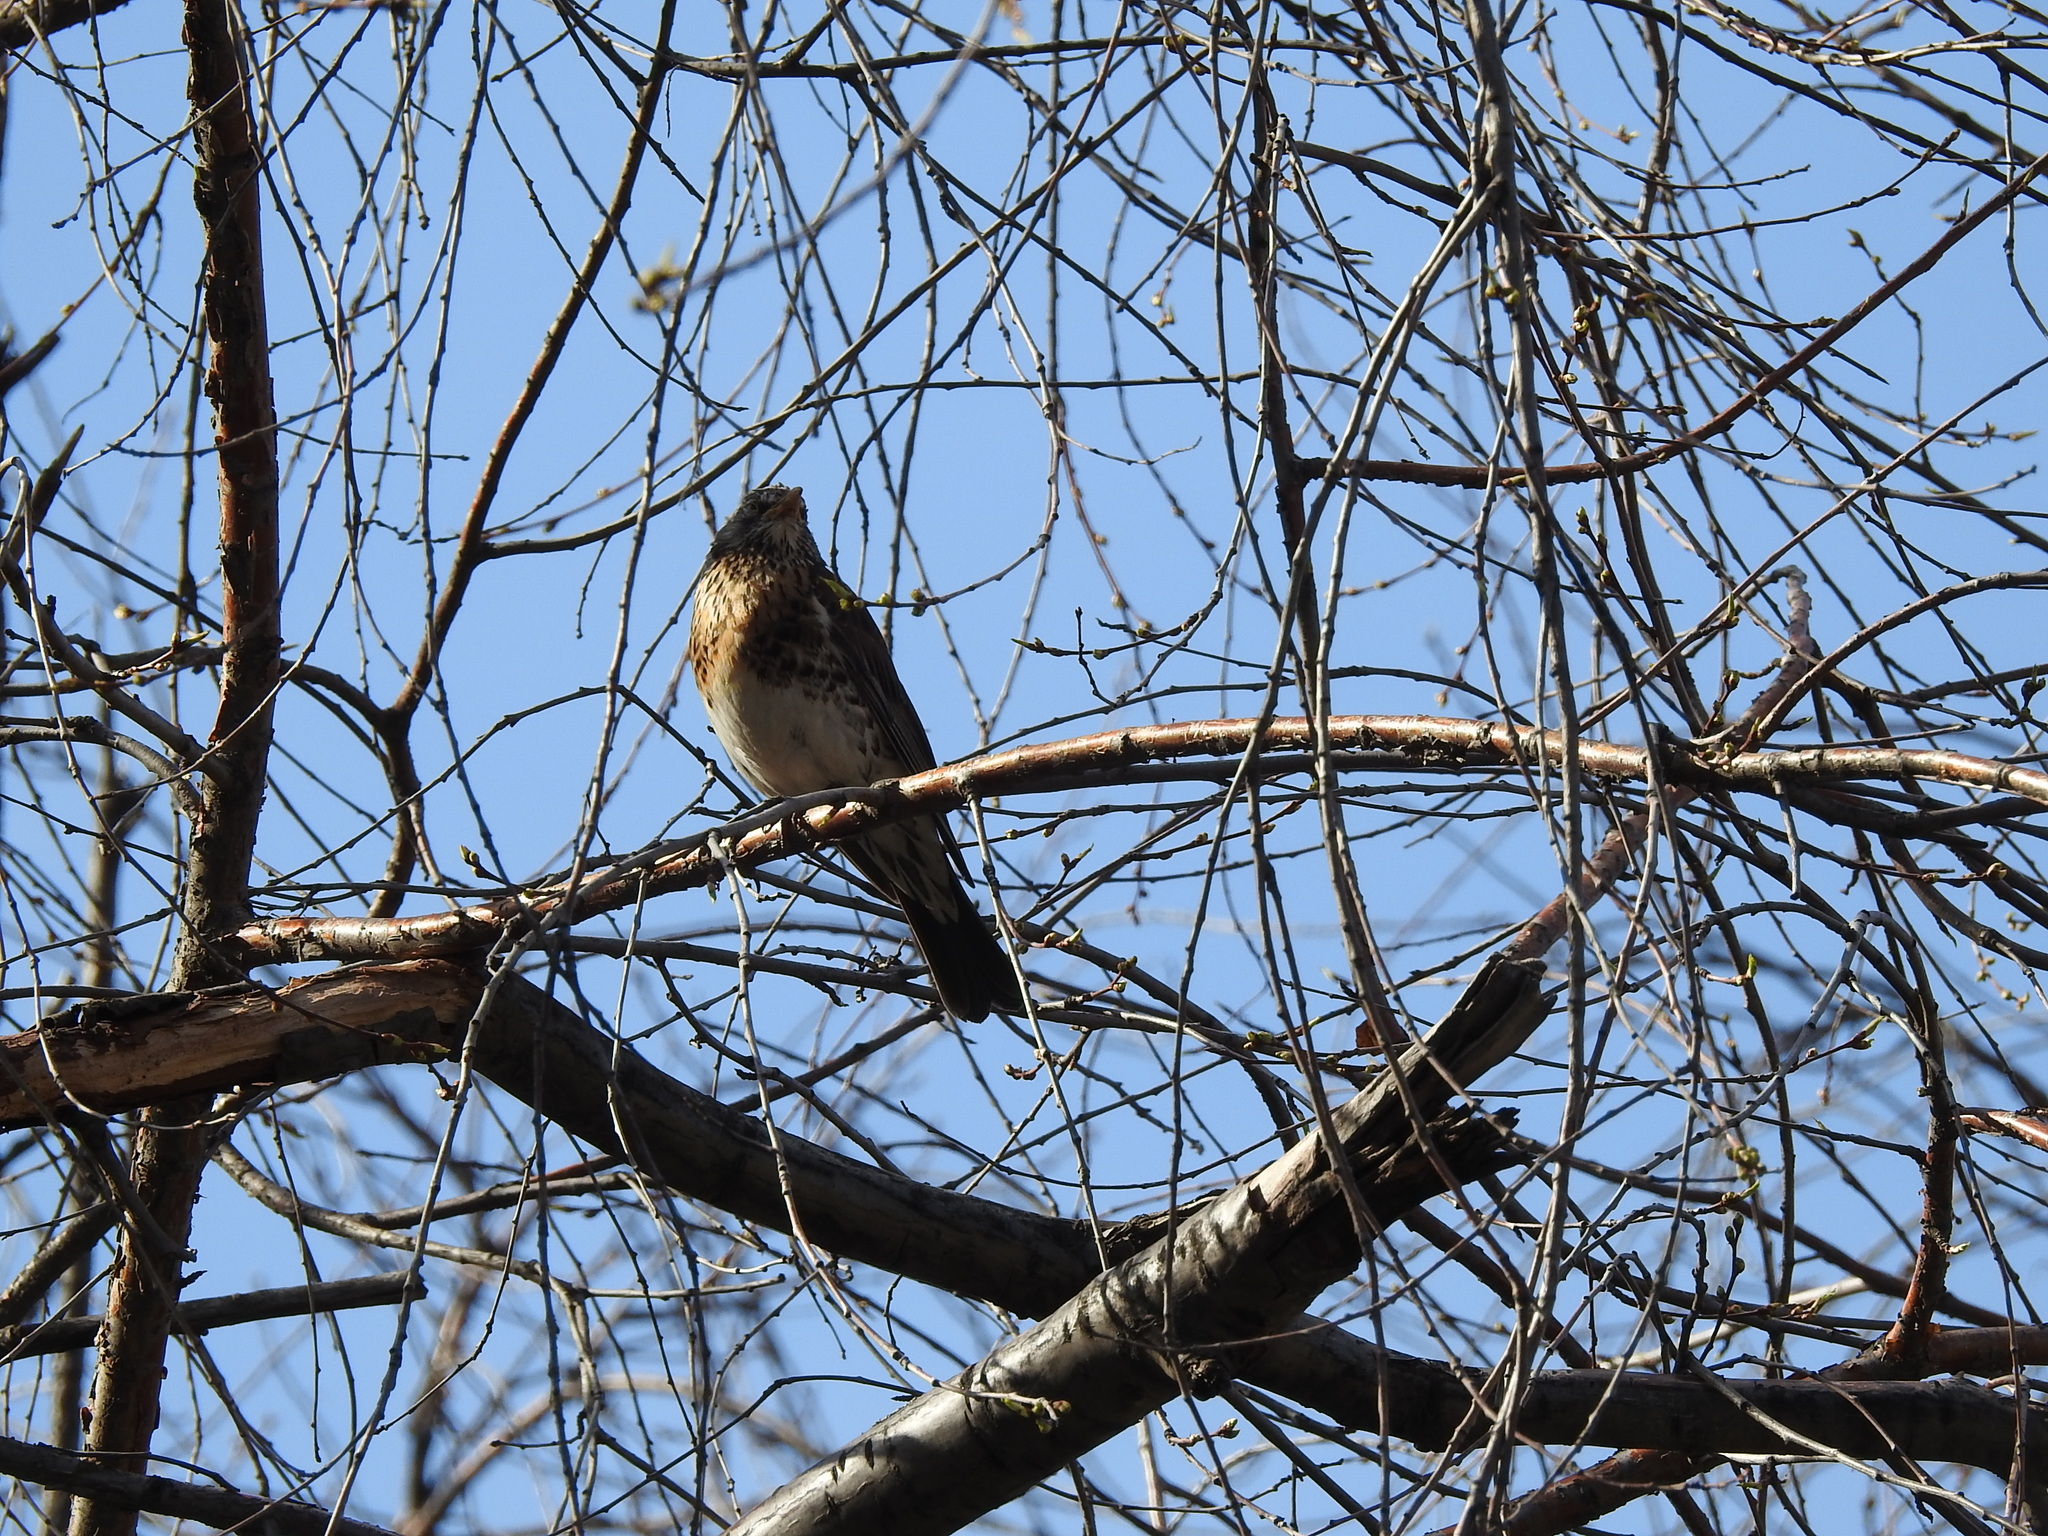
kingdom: Animalia
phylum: Chordata
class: Aves
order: Passeriformes
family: Turdidae
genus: Turdus
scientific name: Turdus pilaris
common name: Fieldfare
